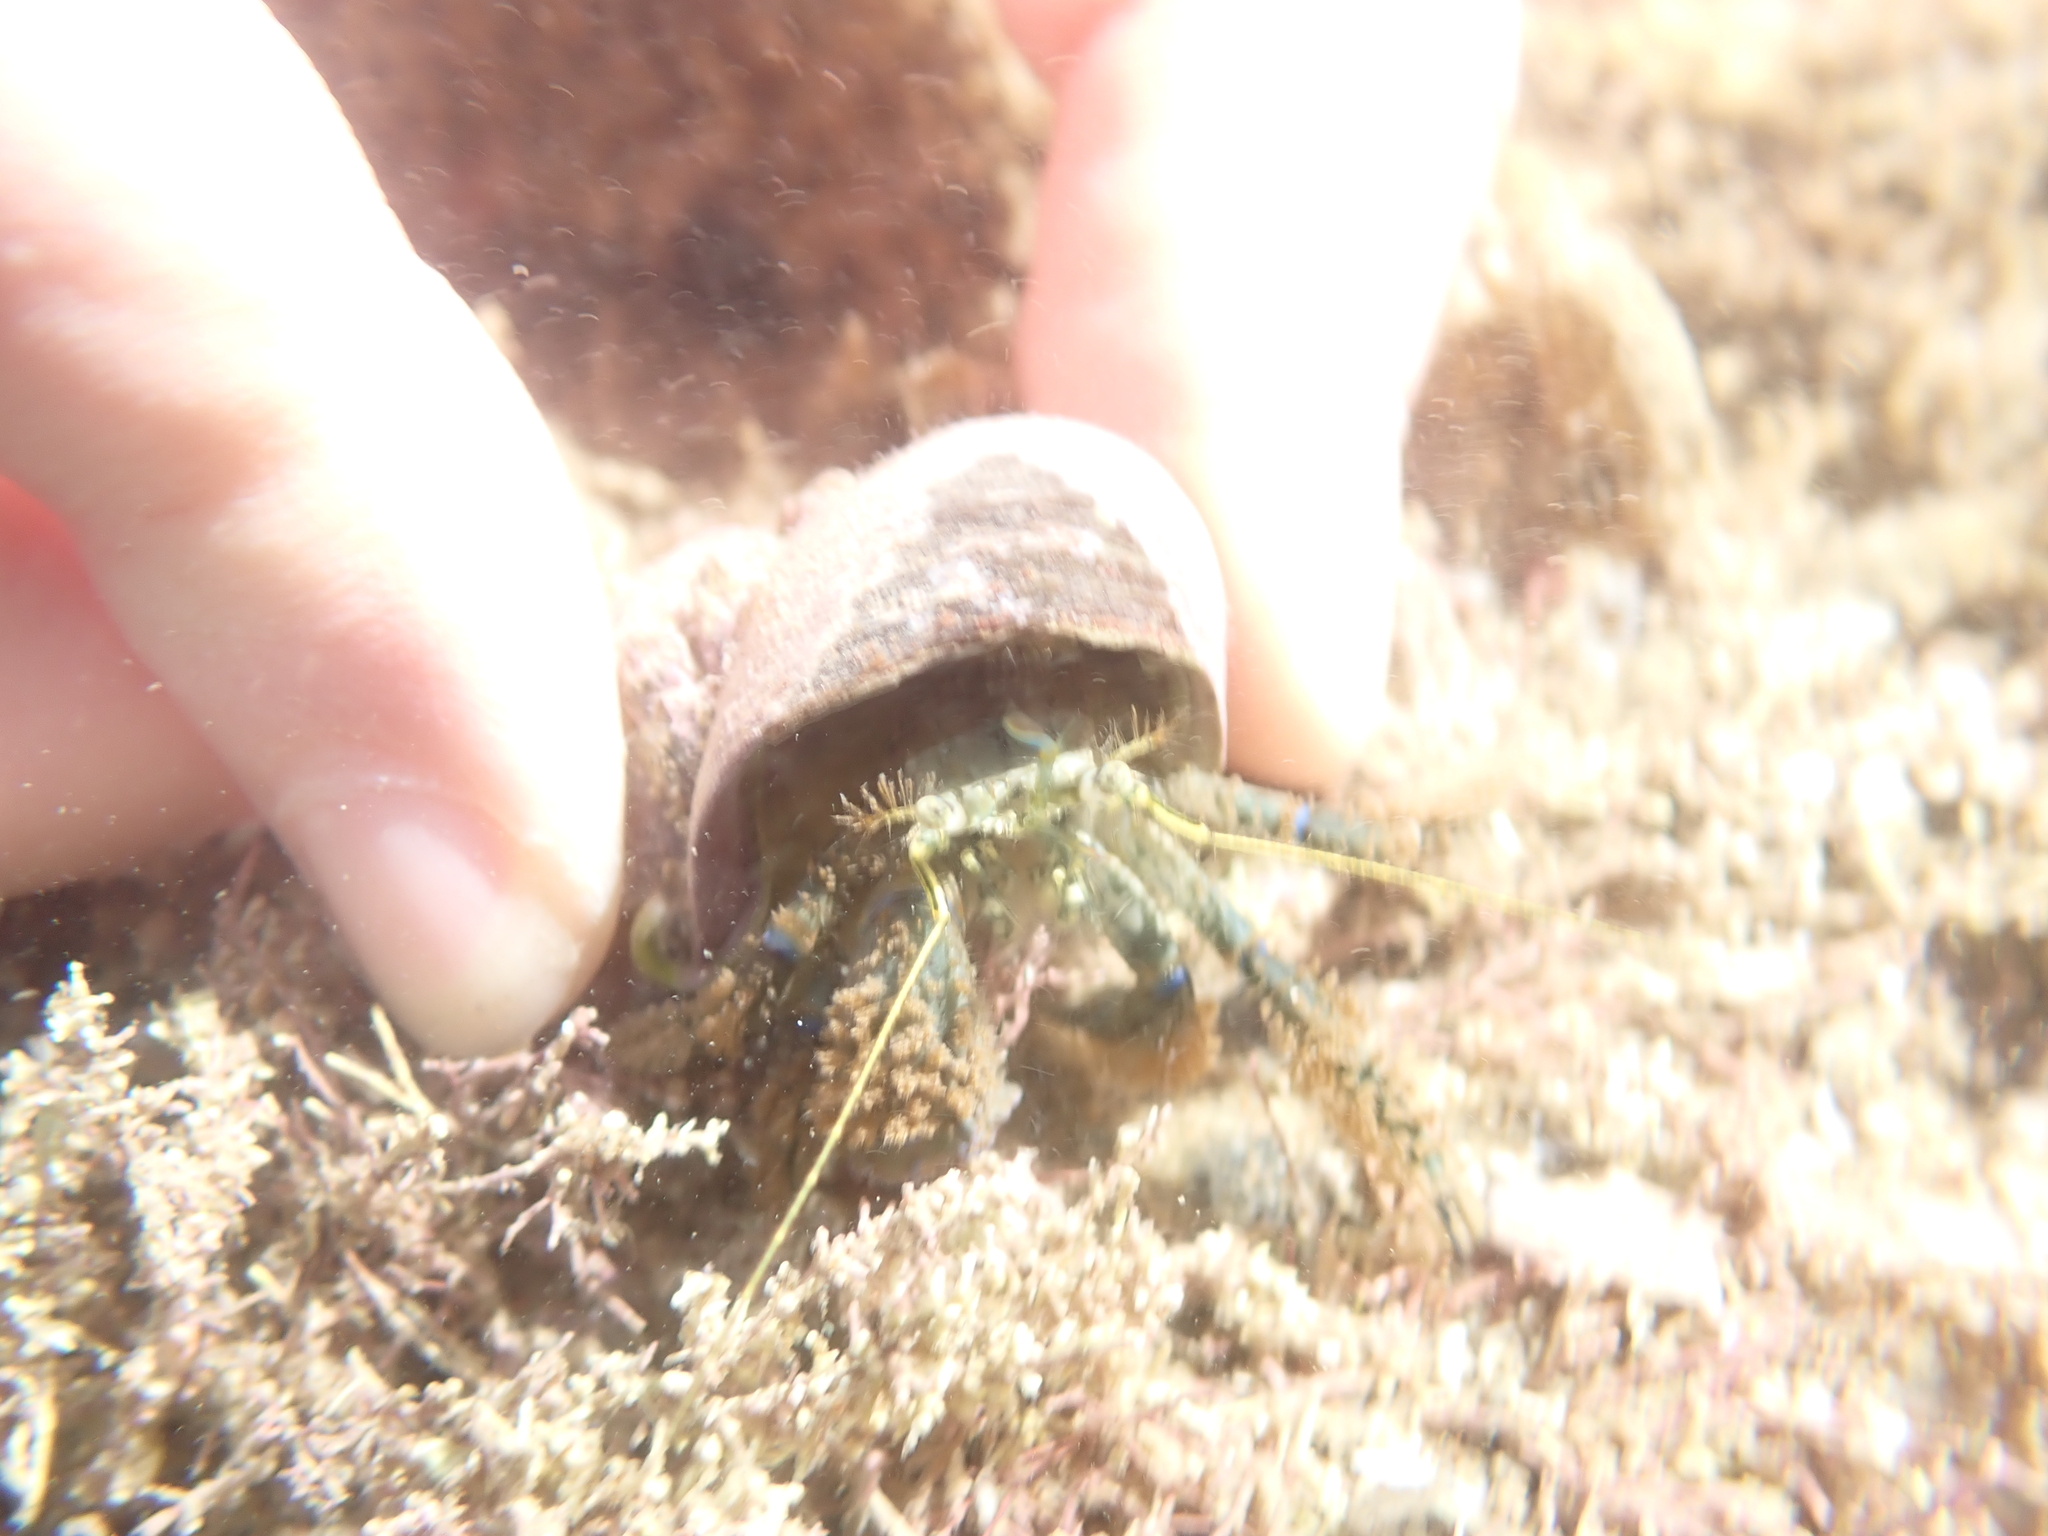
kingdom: Animalia
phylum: Arthropoda
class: Malacostraca
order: Decapoda
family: Paguridae
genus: Pagurus
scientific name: Pagurus novizealandiae
